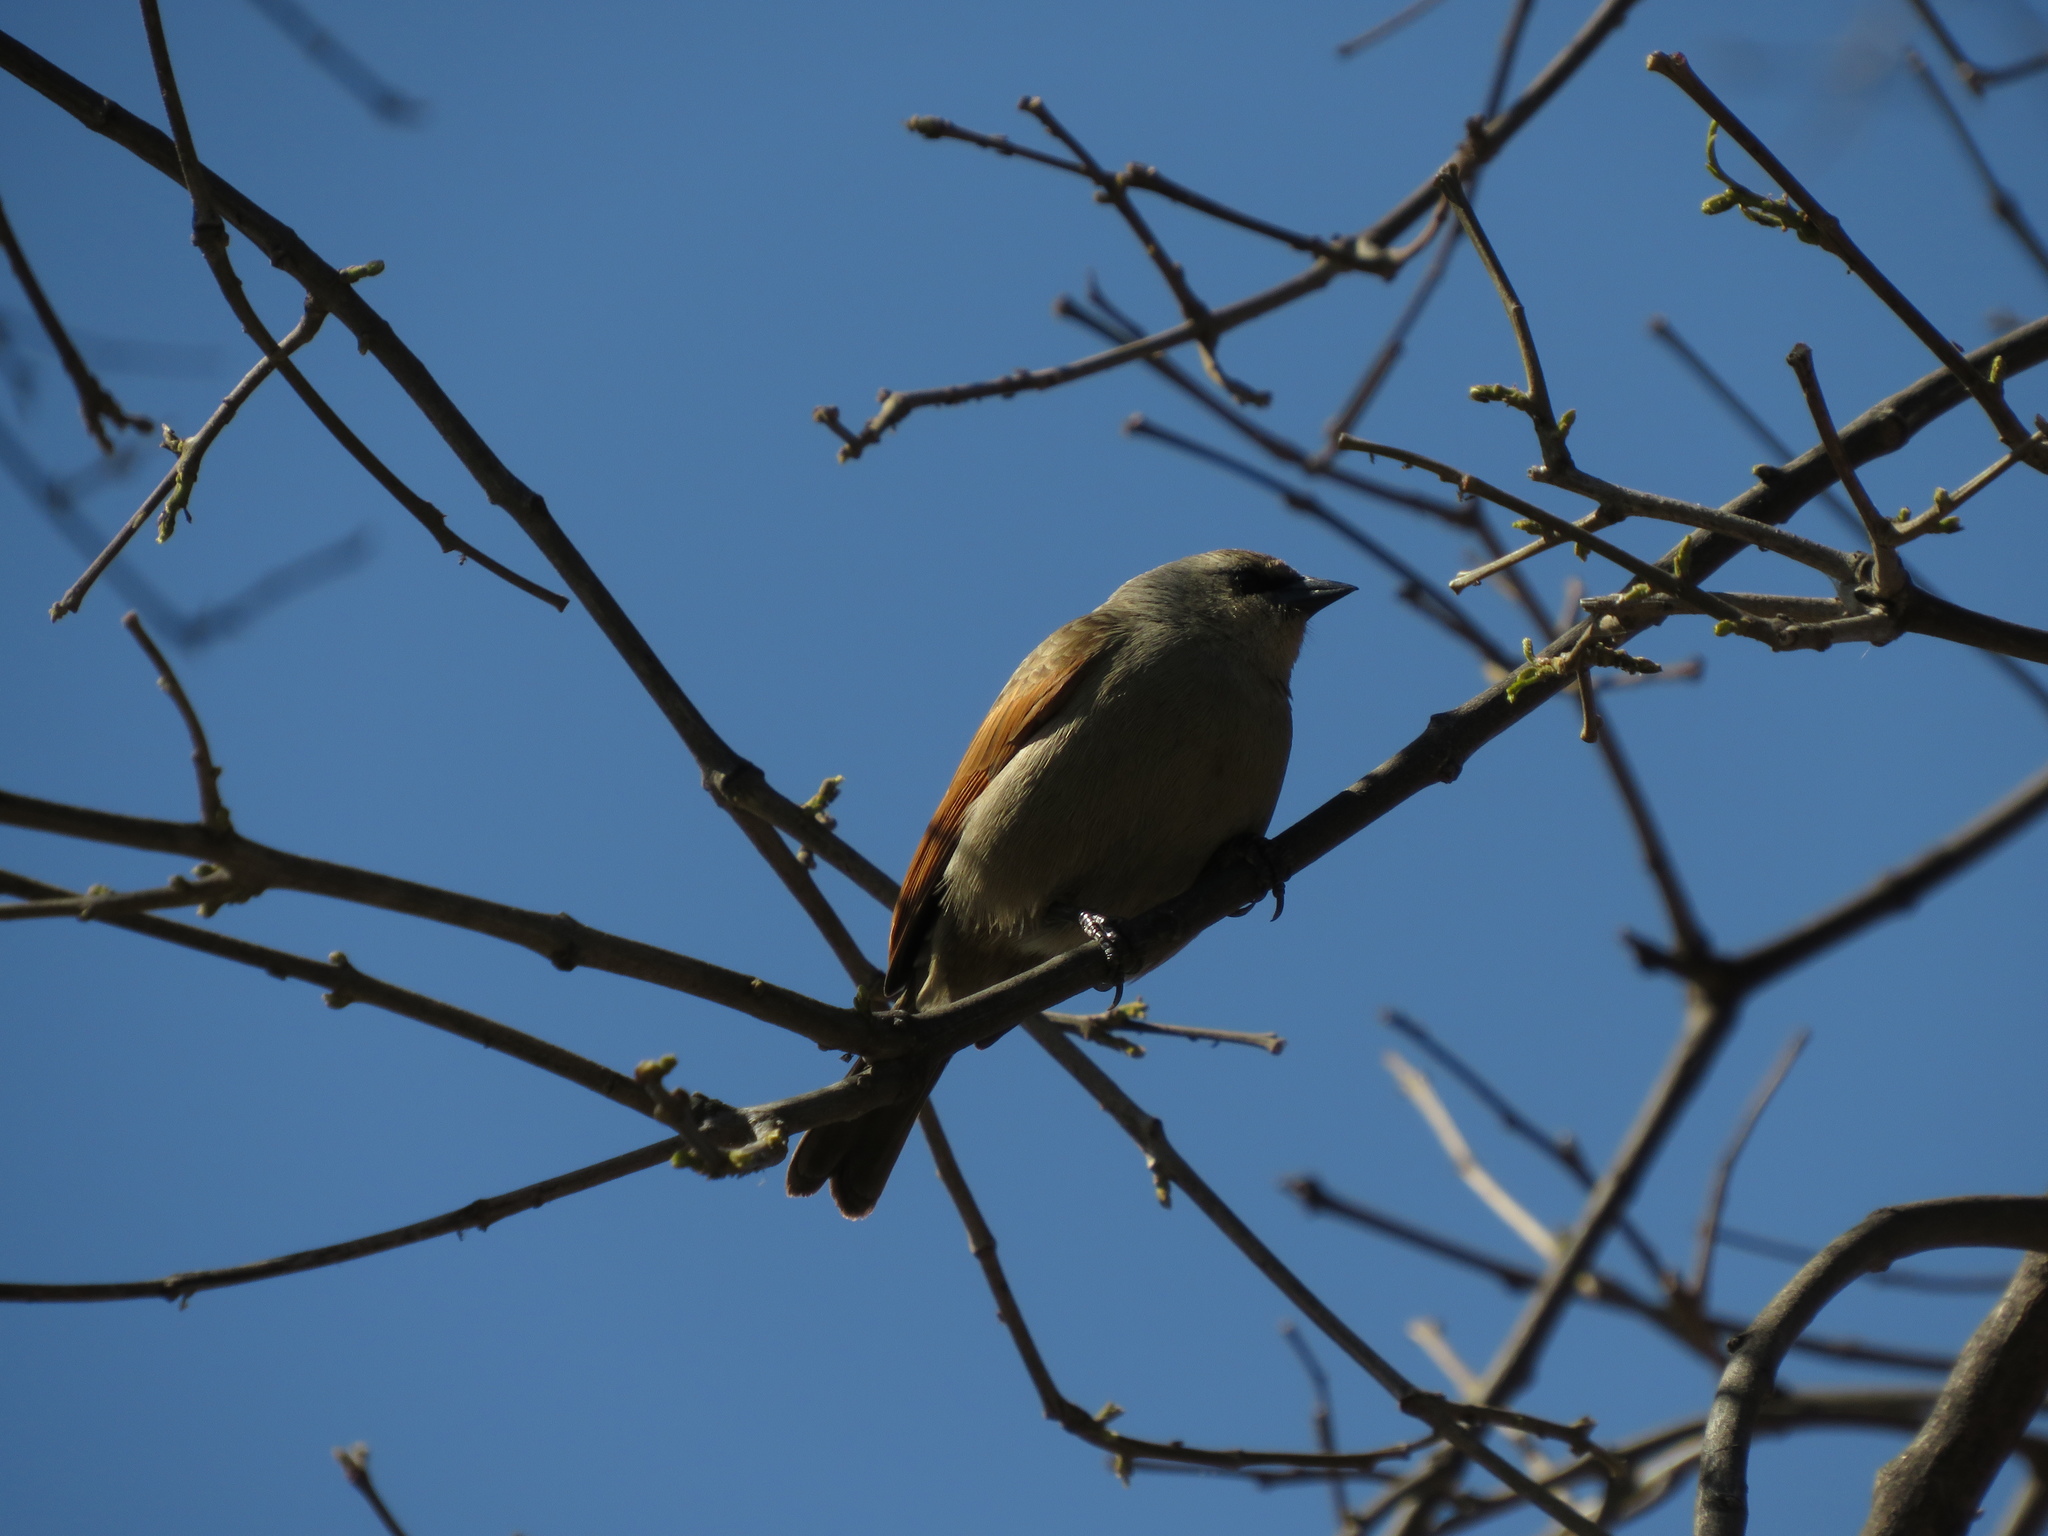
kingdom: Animalia
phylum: Chordata
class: Aves
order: Passeriformes
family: Icteridae
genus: Agelaioides
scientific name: Agelaioides badius
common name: Baywing
